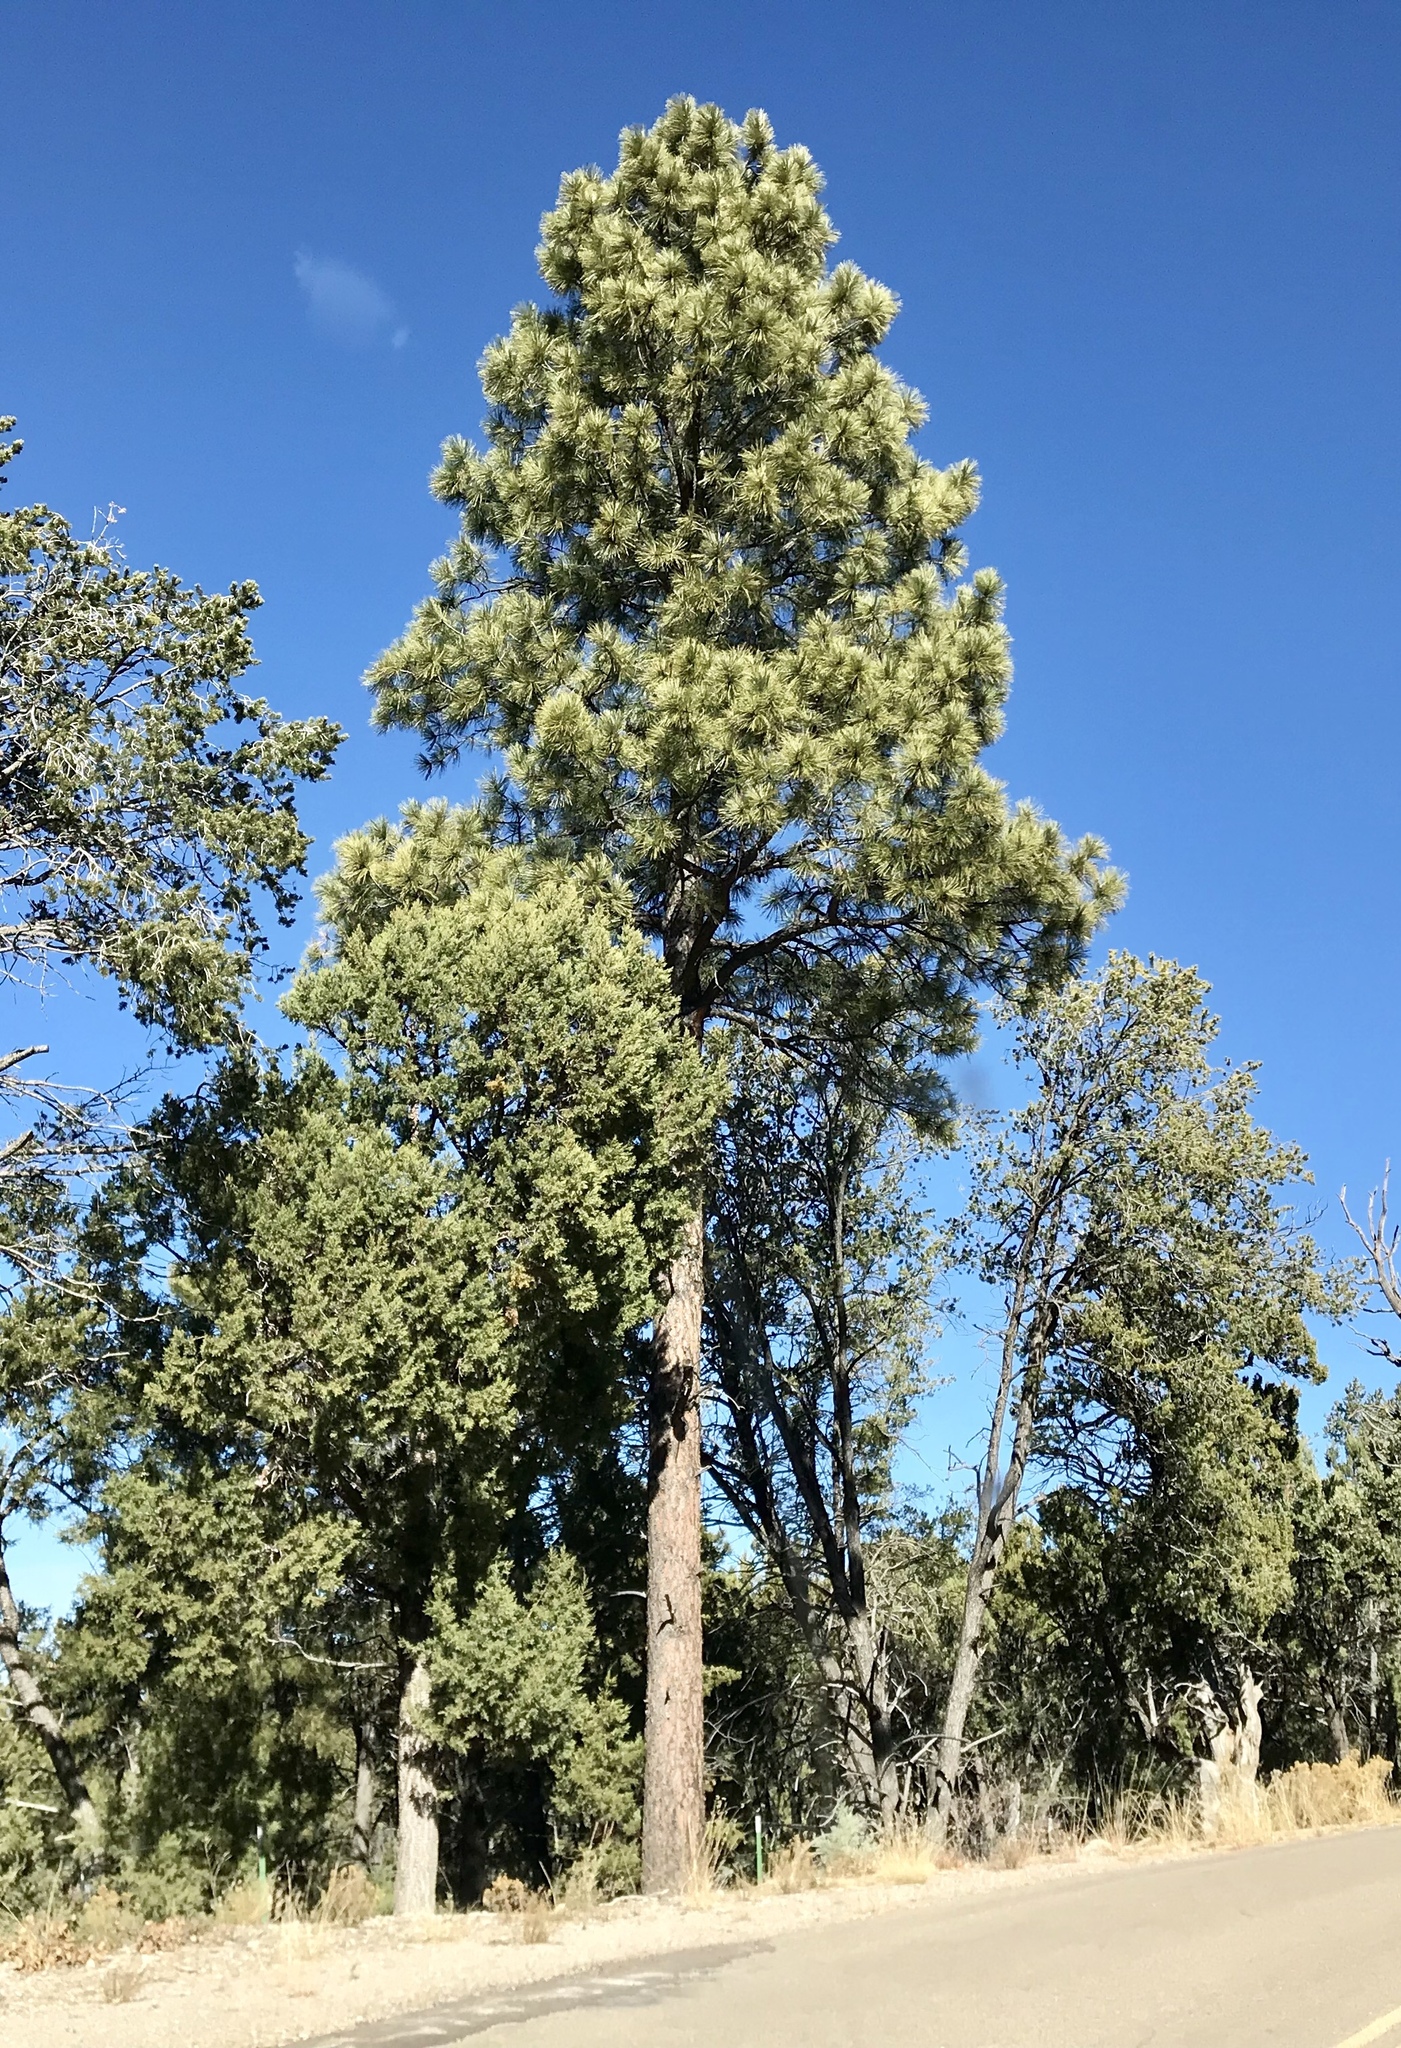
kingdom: Plantae
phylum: Tracheophyta
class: Pinopsida
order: Pinales
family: Pinaceae
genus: Pinus
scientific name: Pinus ponderosa
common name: Western yellow-pine
